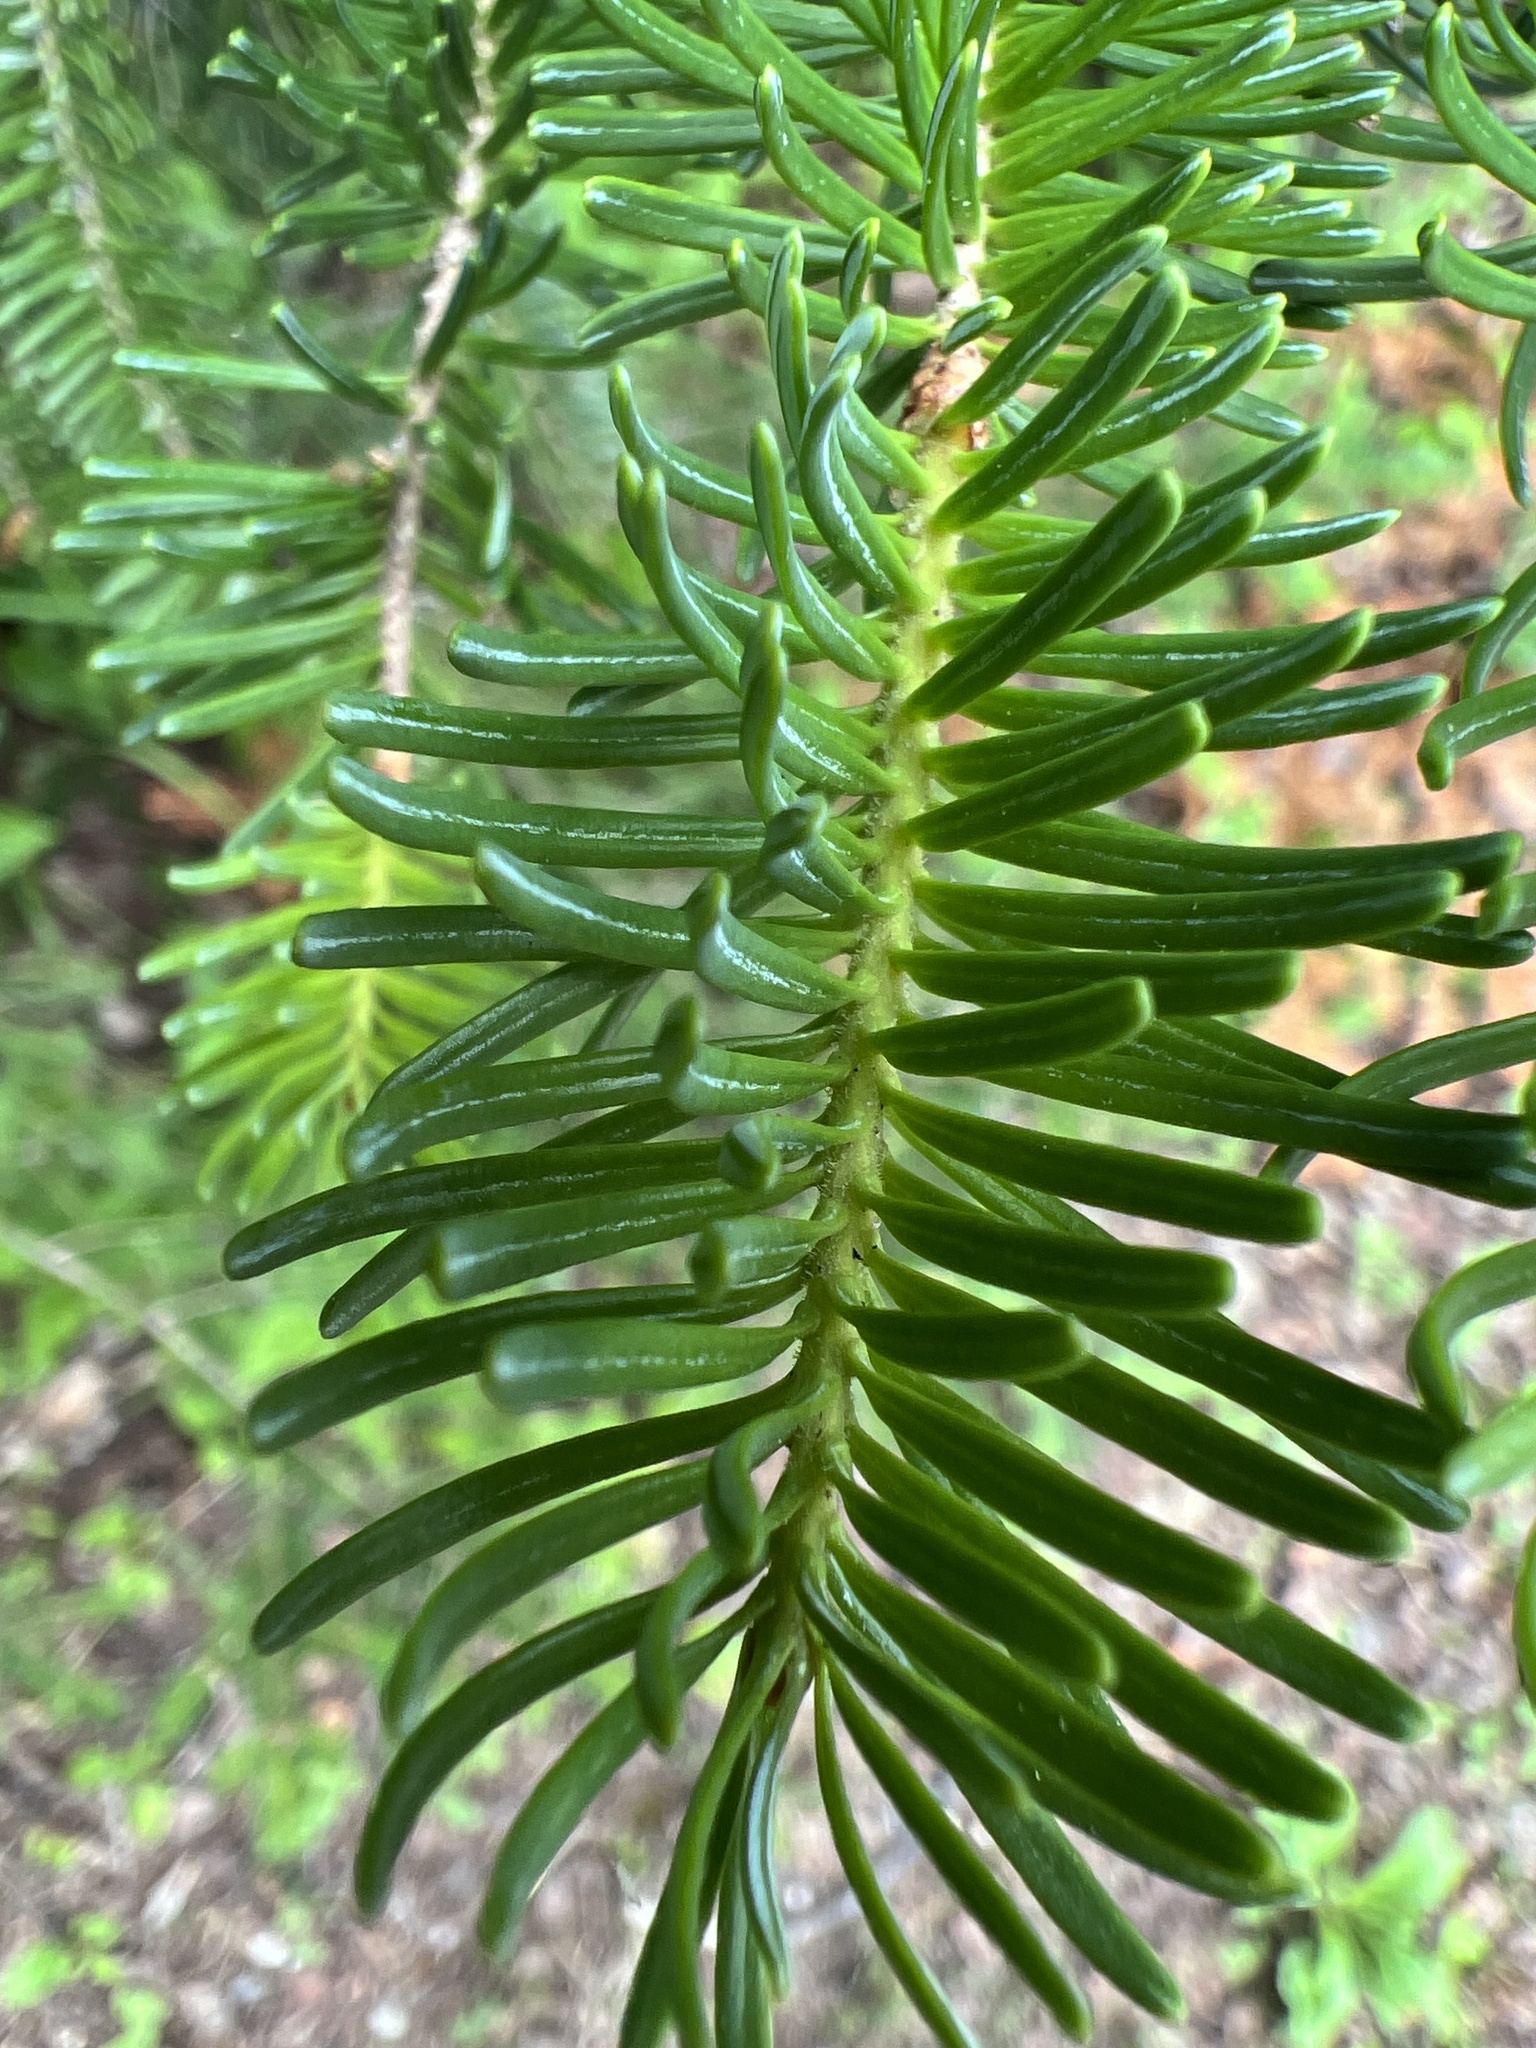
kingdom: Plantae
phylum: Tracheophyta
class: Pinopsida
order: Pinales
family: Pinaceae
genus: Abies
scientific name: Abies balsamea
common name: Balsam fir
